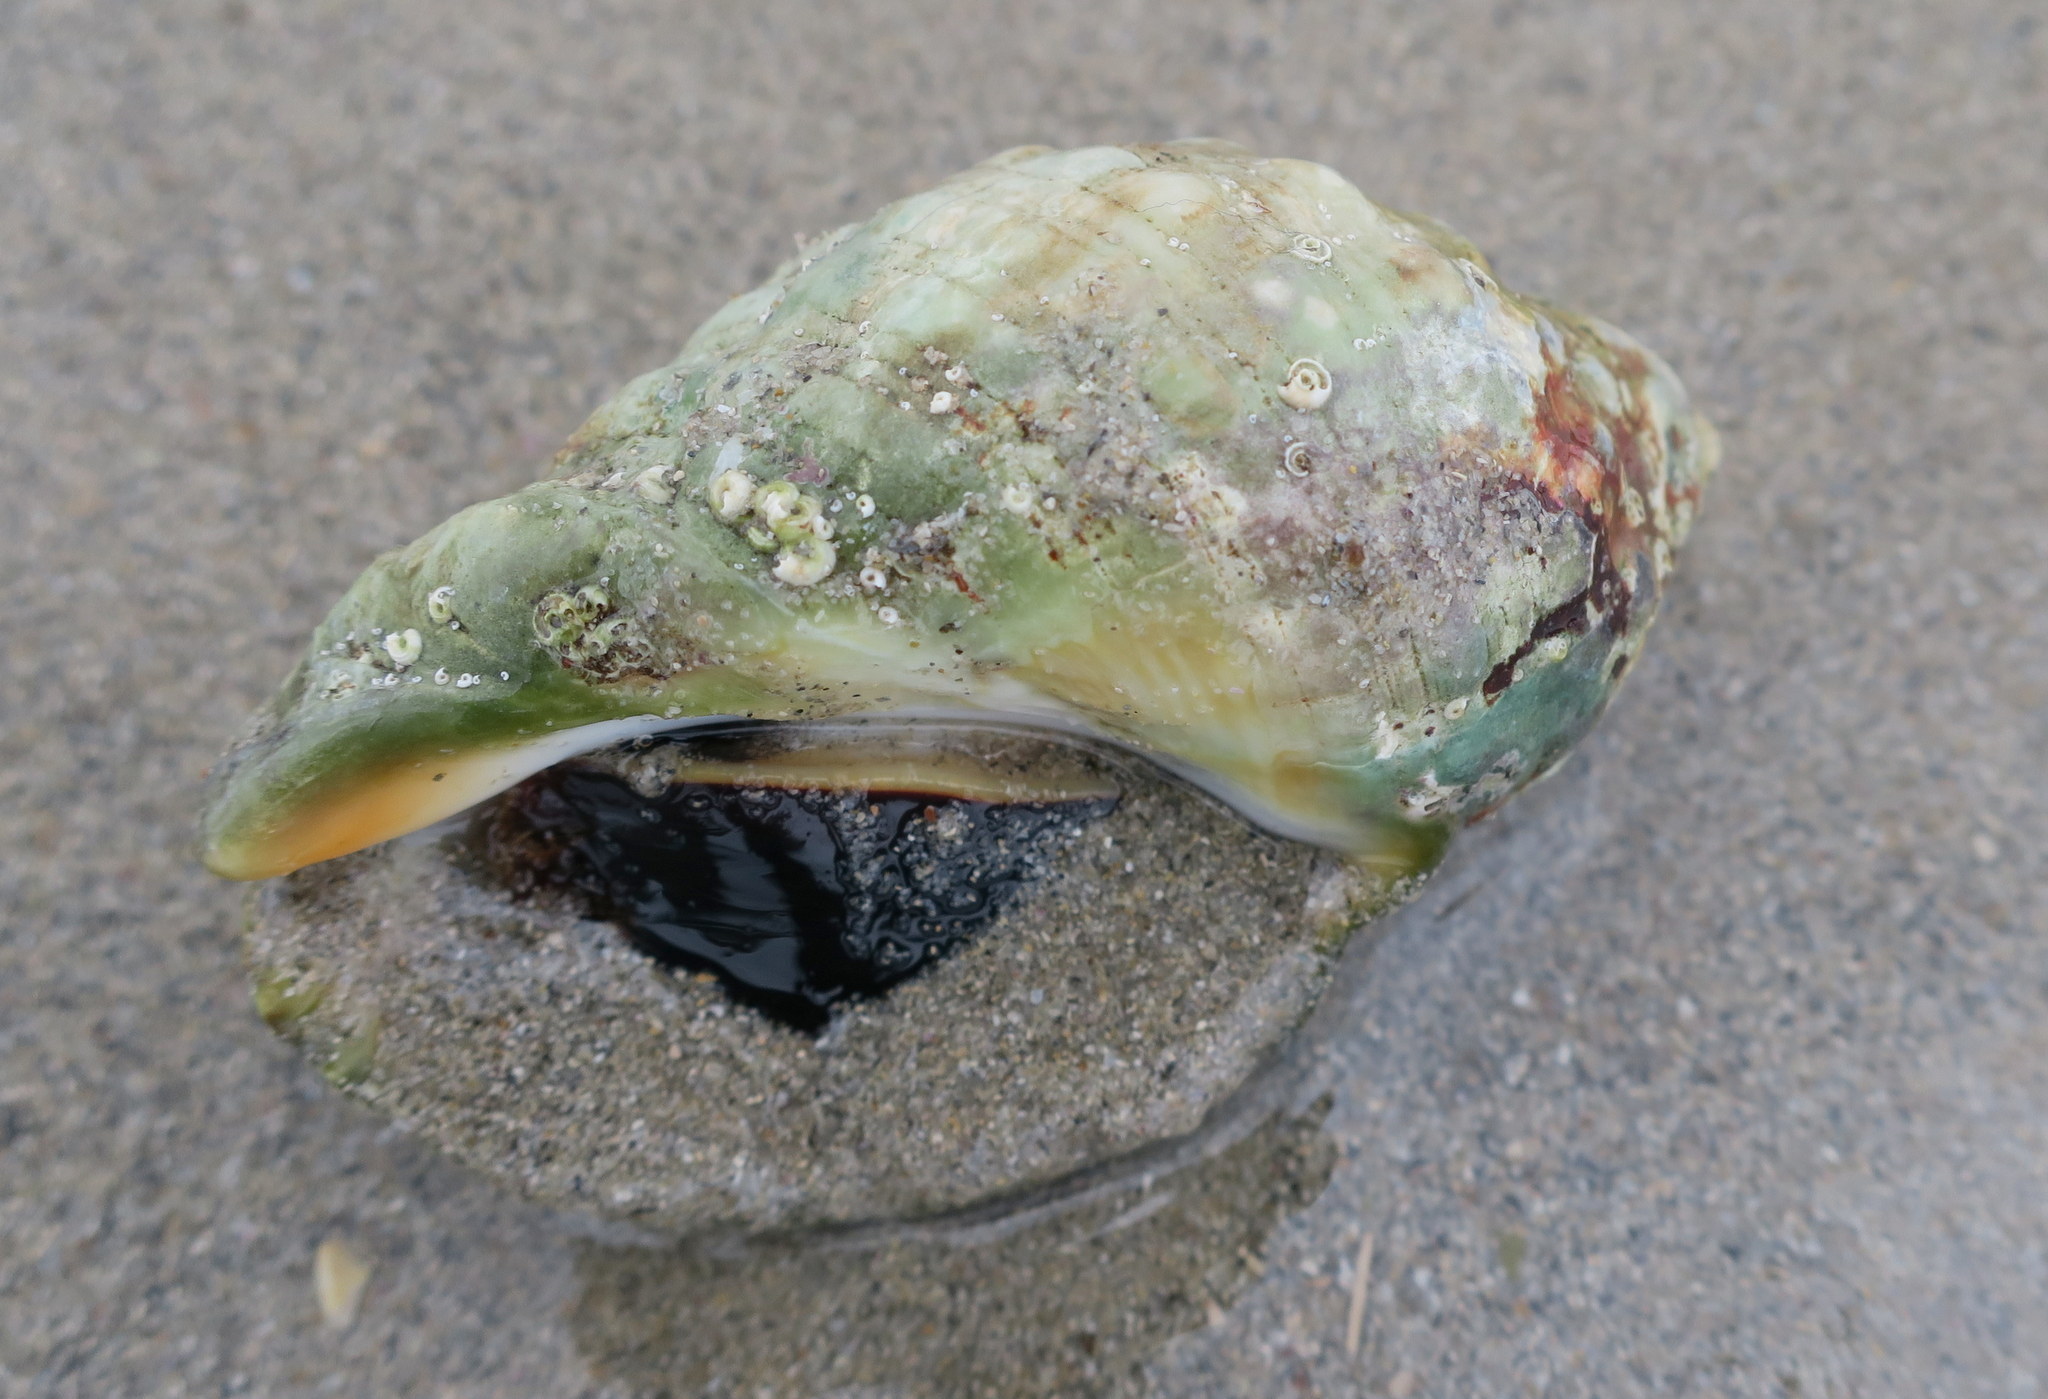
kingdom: Animalia
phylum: Mollusca
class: Gastropoda
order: Neogastropoda
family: Muricidae
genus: Dicathais
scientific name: Dicathais orbita
